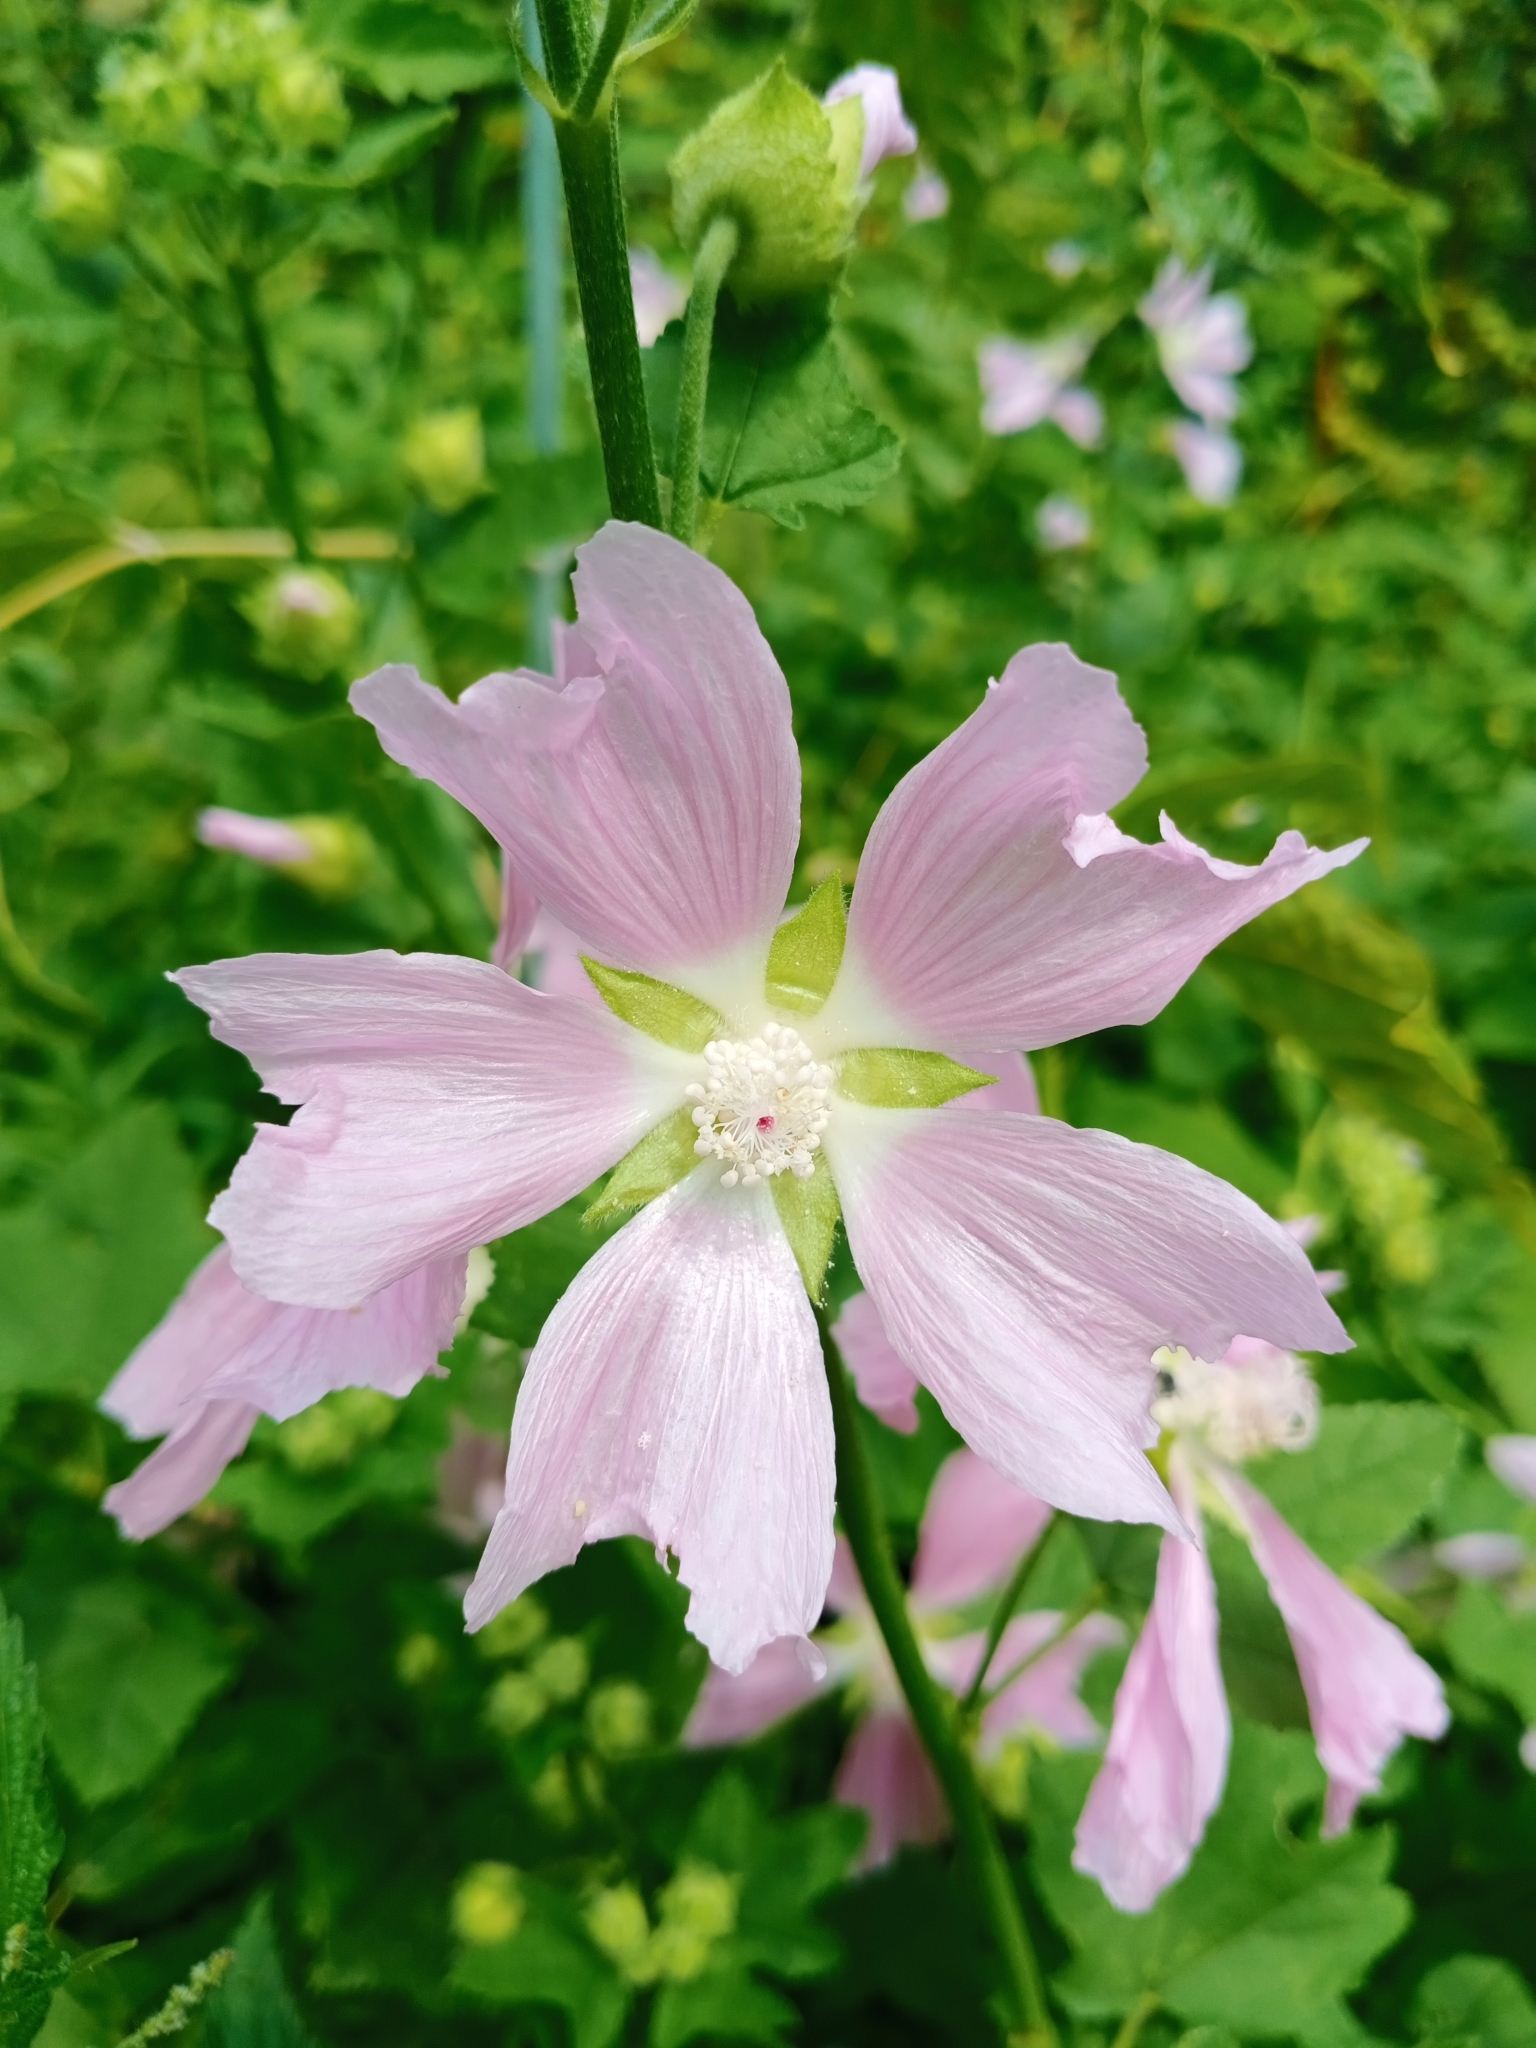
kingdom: Plantae
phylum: Tracheophyta
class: Magnoliopsida
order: Malvales
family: Malvaceae
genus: Malva
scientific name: Malva thuringiaca
